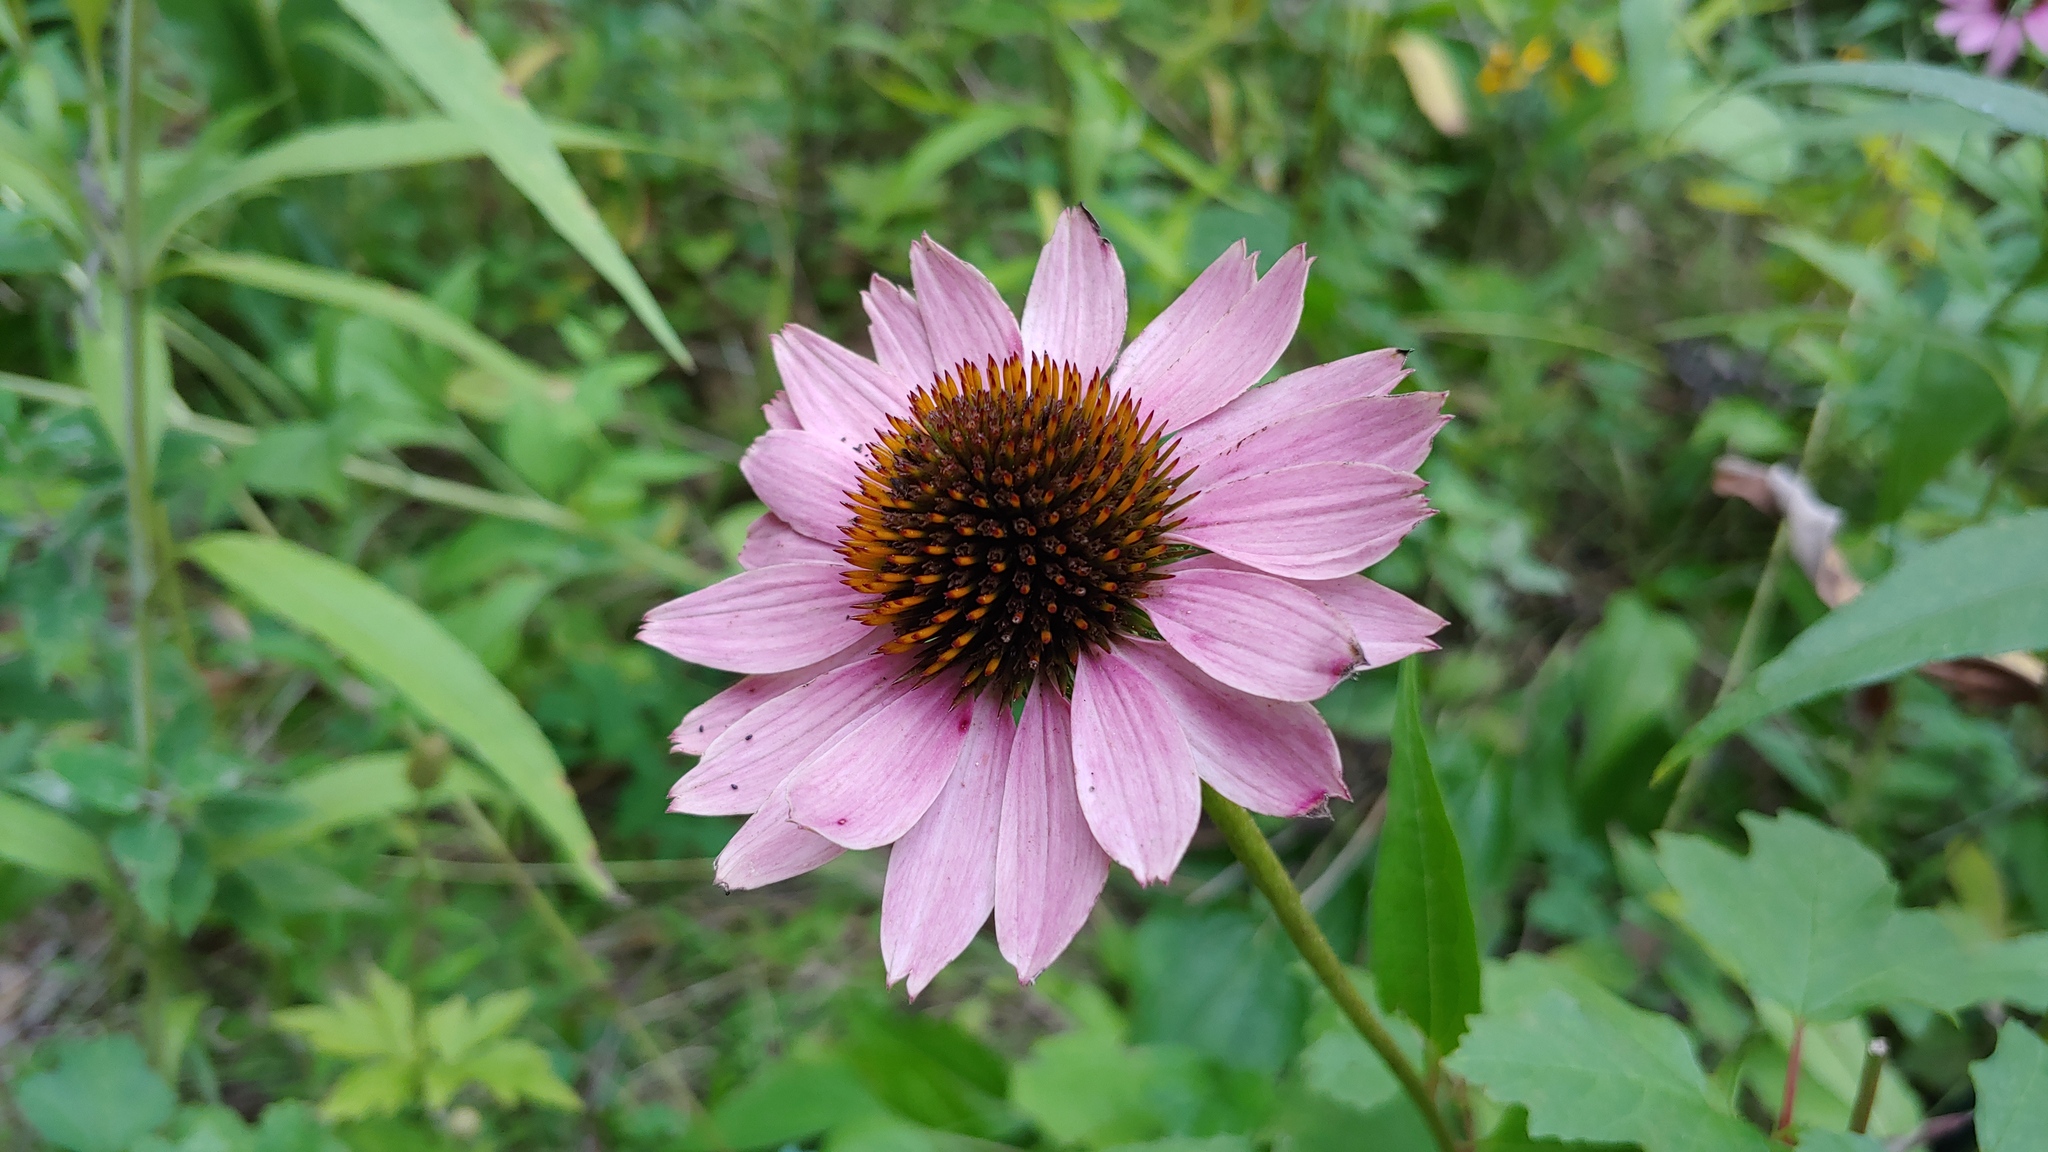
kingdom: Plantae
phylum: Tracheophyta
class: Magnoliopsida
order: Asterales
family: Asteraceae
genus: Echinacea
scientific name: Echinacea purpurea
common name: Broad-leaved purple coneflower
